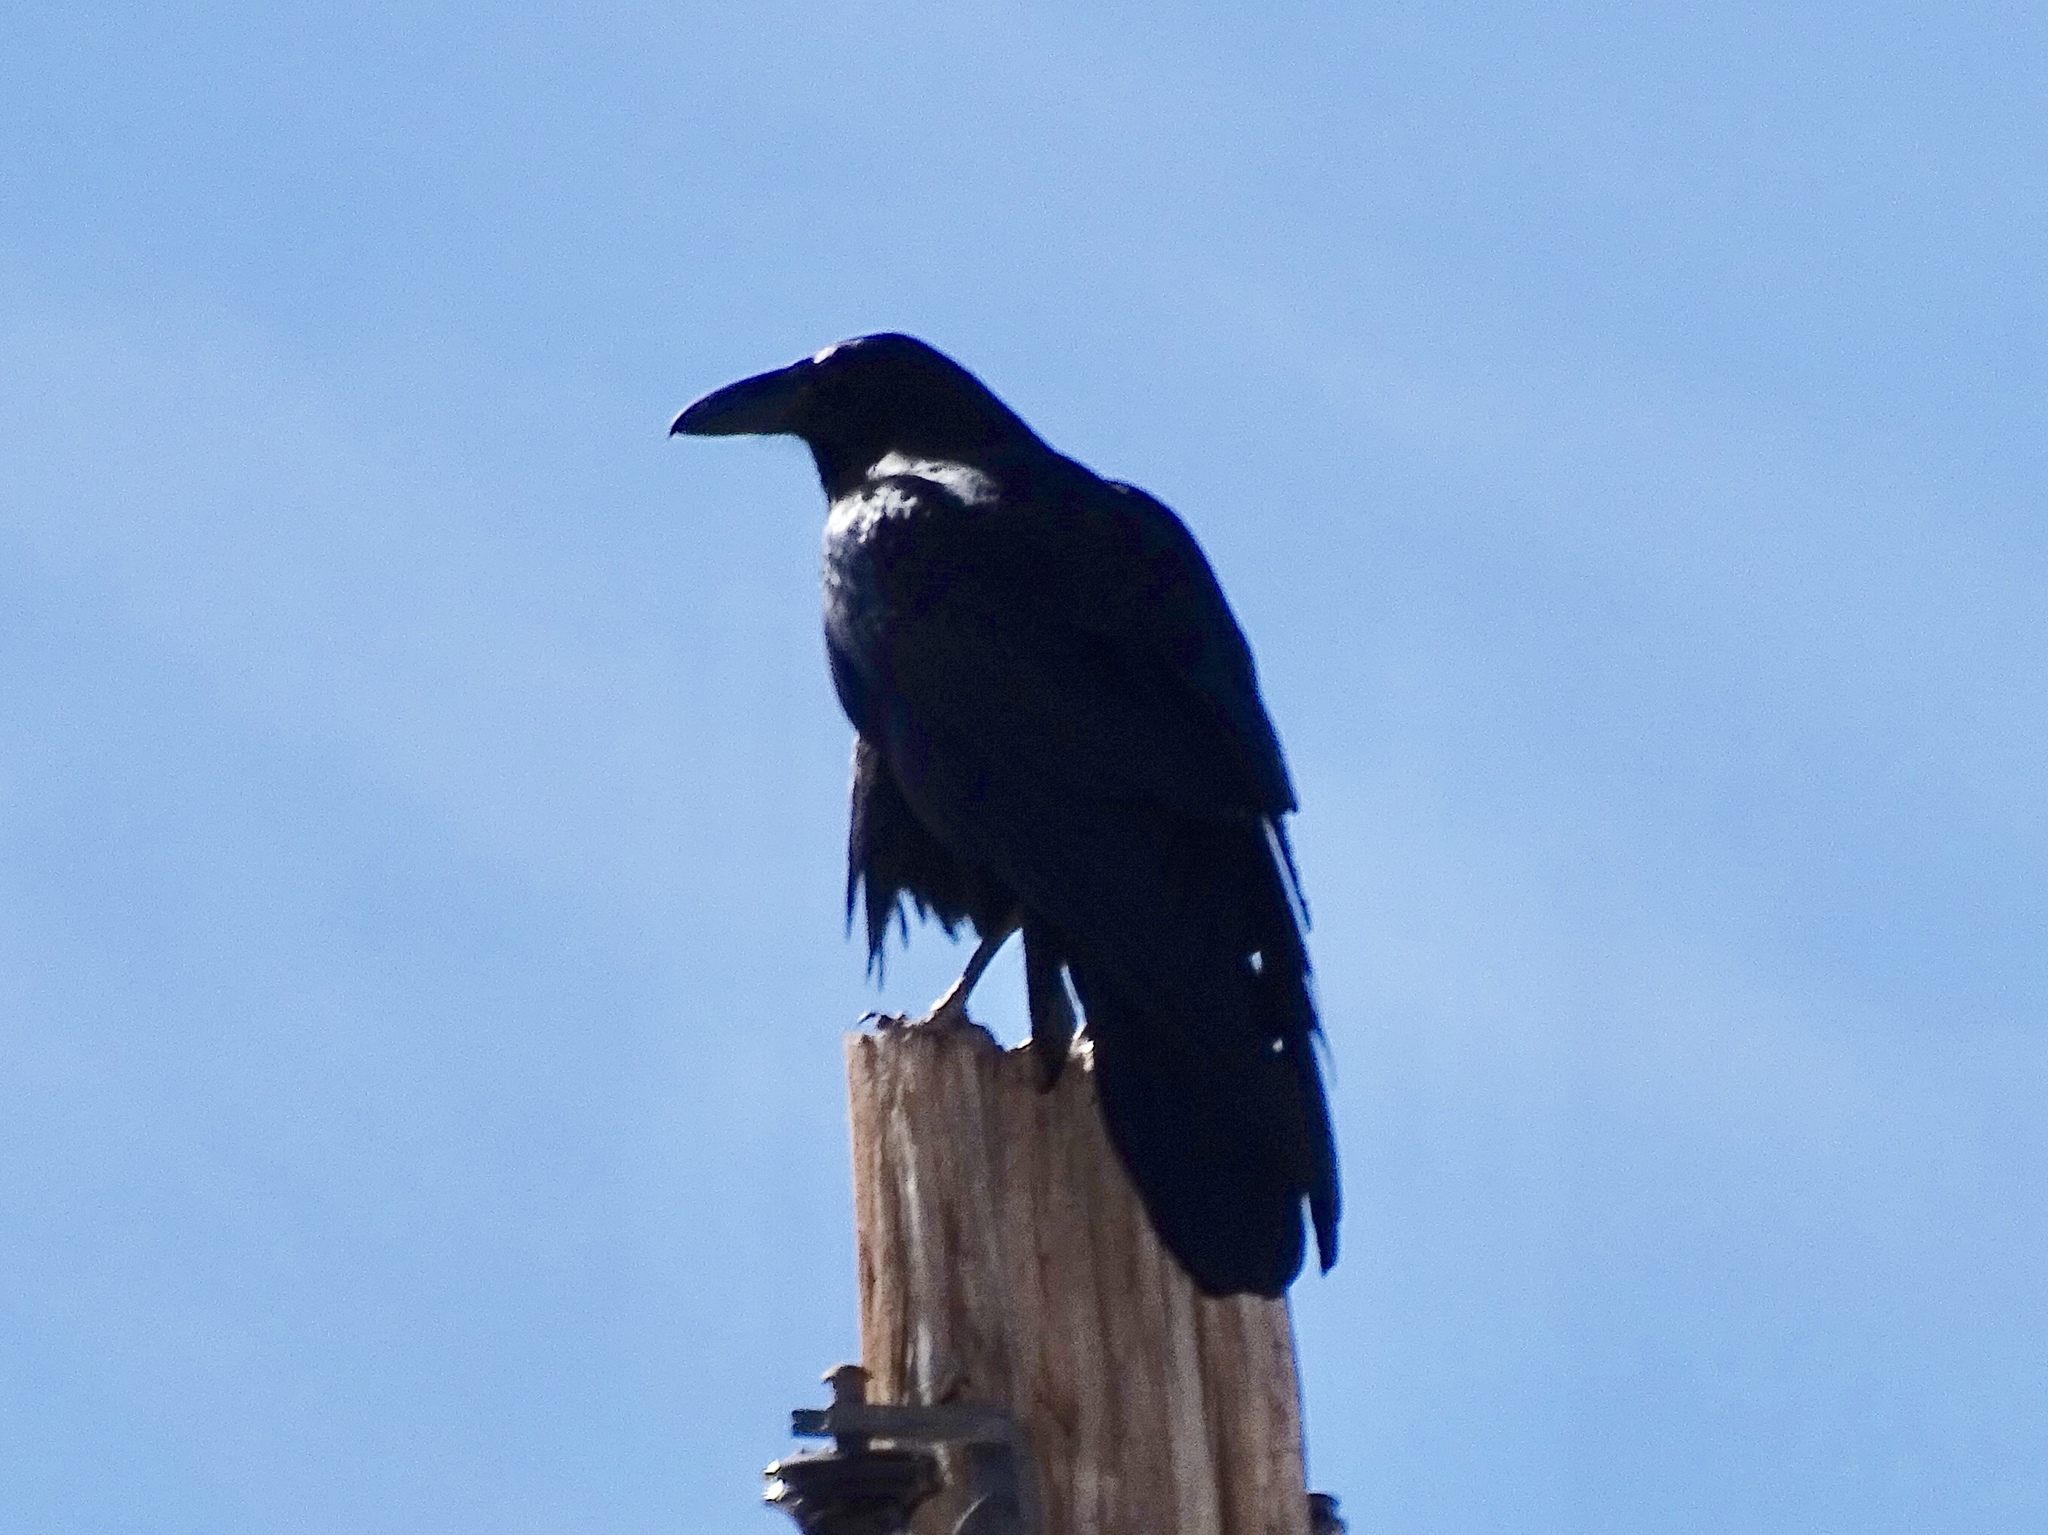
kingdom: Animalia
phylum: Chordata
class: Aves
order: Passeriformes
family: Corvidae
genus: Corvus
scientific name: Corvus corax
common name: Common raven
